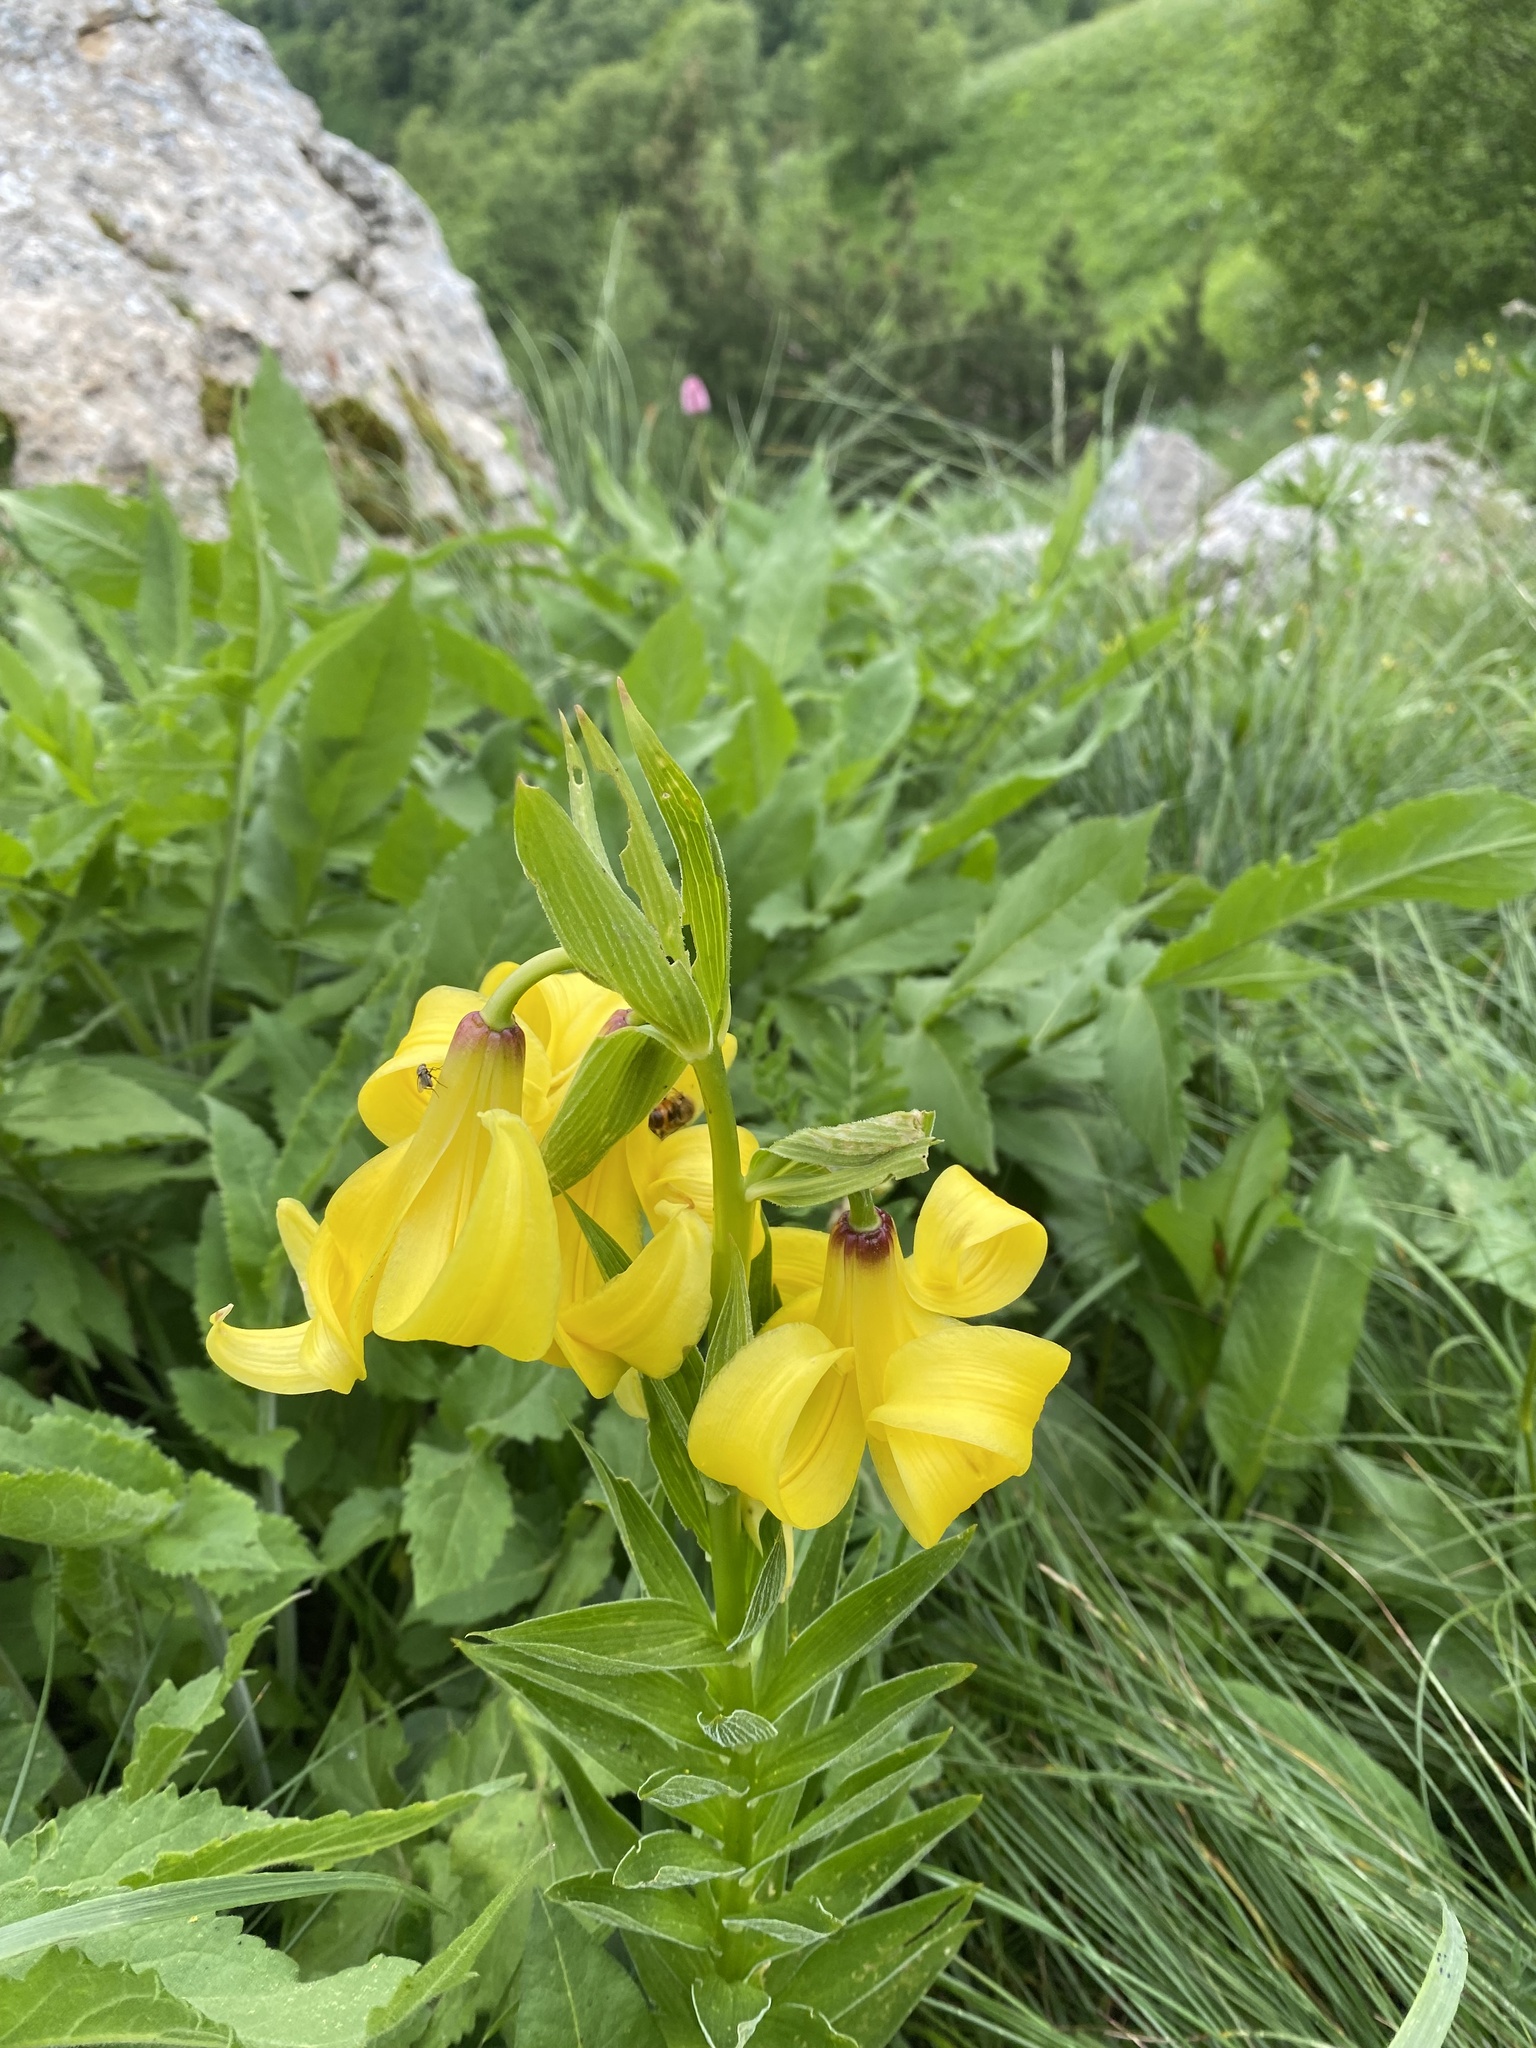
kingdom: Plantae
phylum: Tracheophyta
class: Liliopsida
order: Liliales
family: Liliaceae
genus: Lilium
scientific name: Lilium monadelphum
